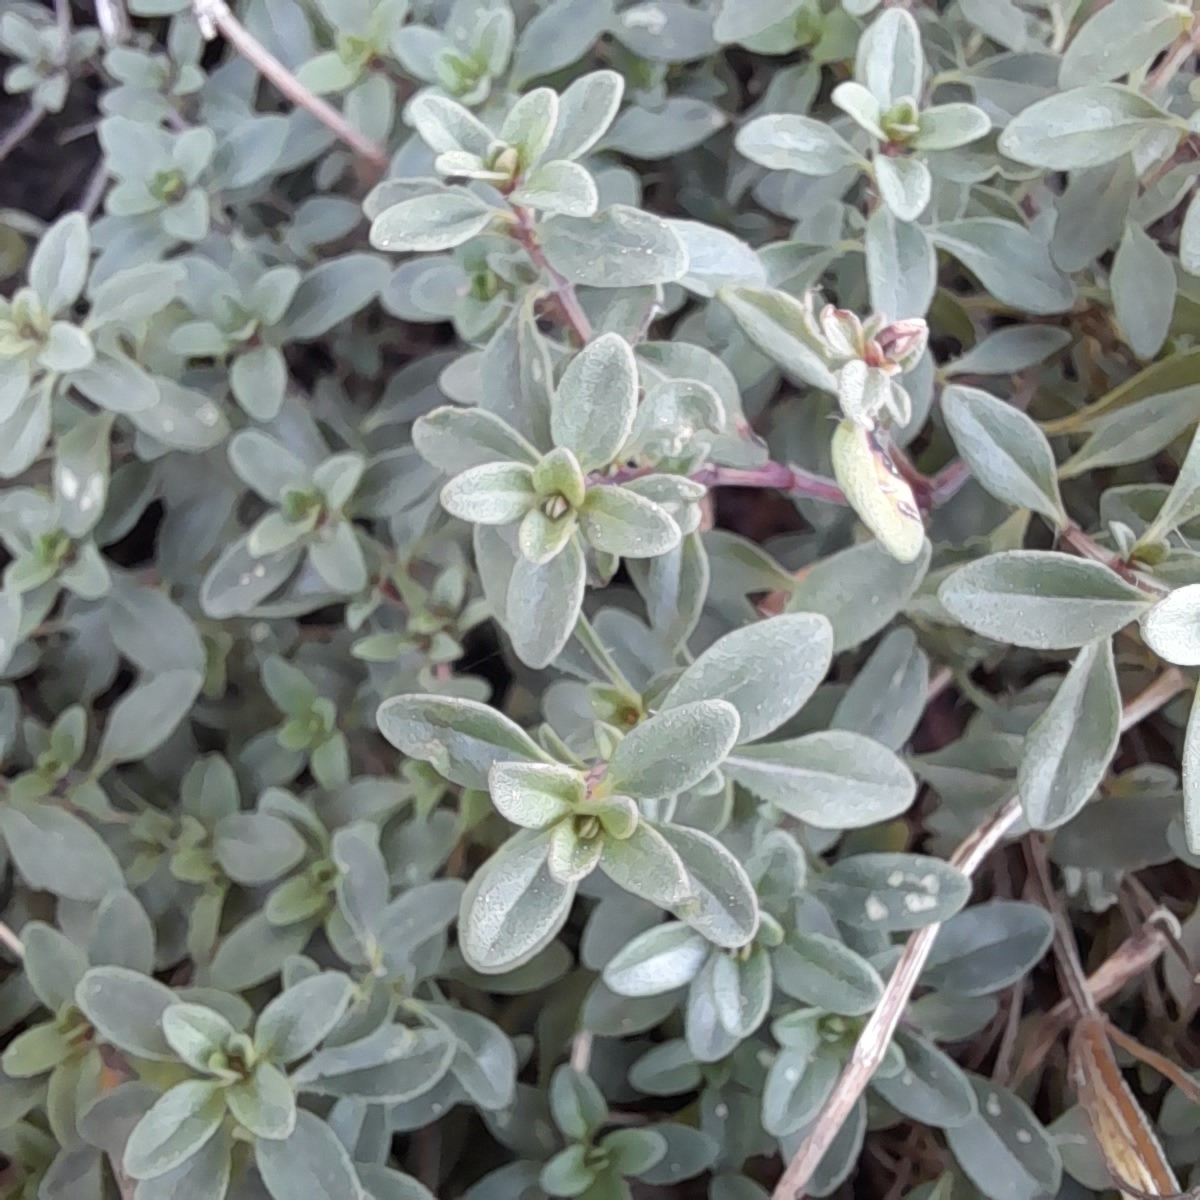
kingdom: Plantae
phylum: Tracheophyta
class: Magnoliopsida
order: Lamiales
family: Lamiaceae
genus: Thymus
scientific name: Thymus pulegioides
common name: Large thyme
